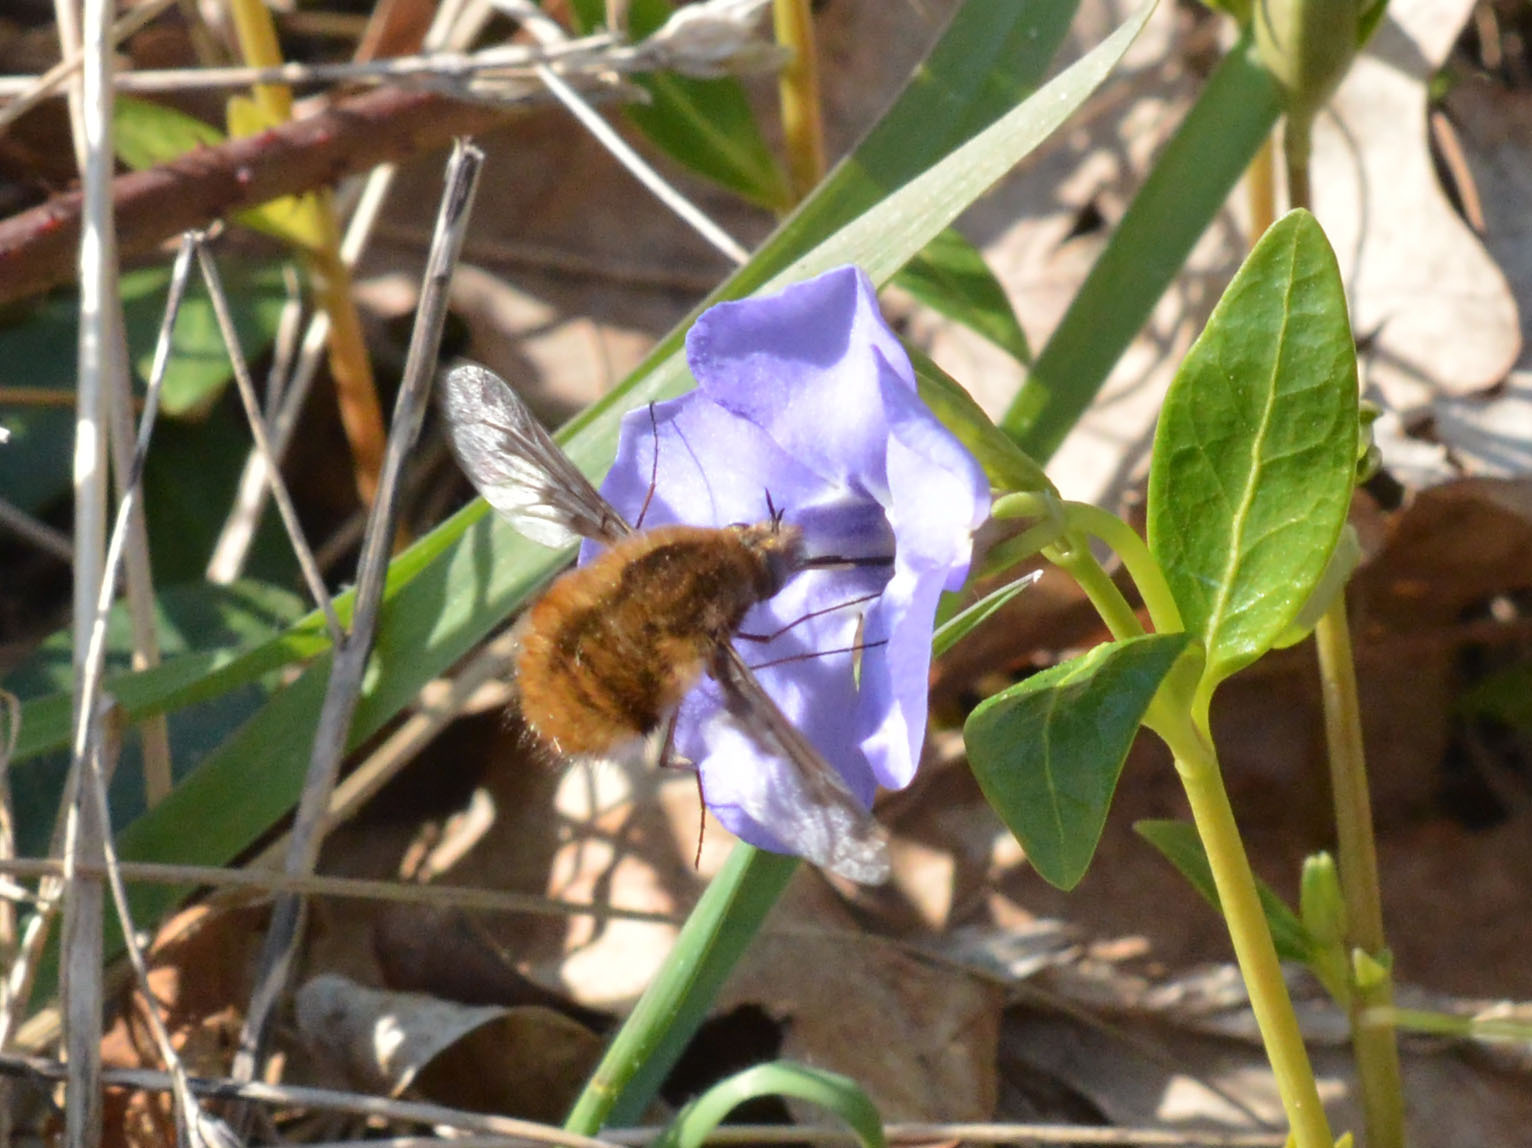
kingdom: Animalia
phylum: Arthropoda
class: Insecta
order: Diptera
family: Bombyliidae
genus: Bombylius
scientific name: Bombylius major
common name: Bee fly
